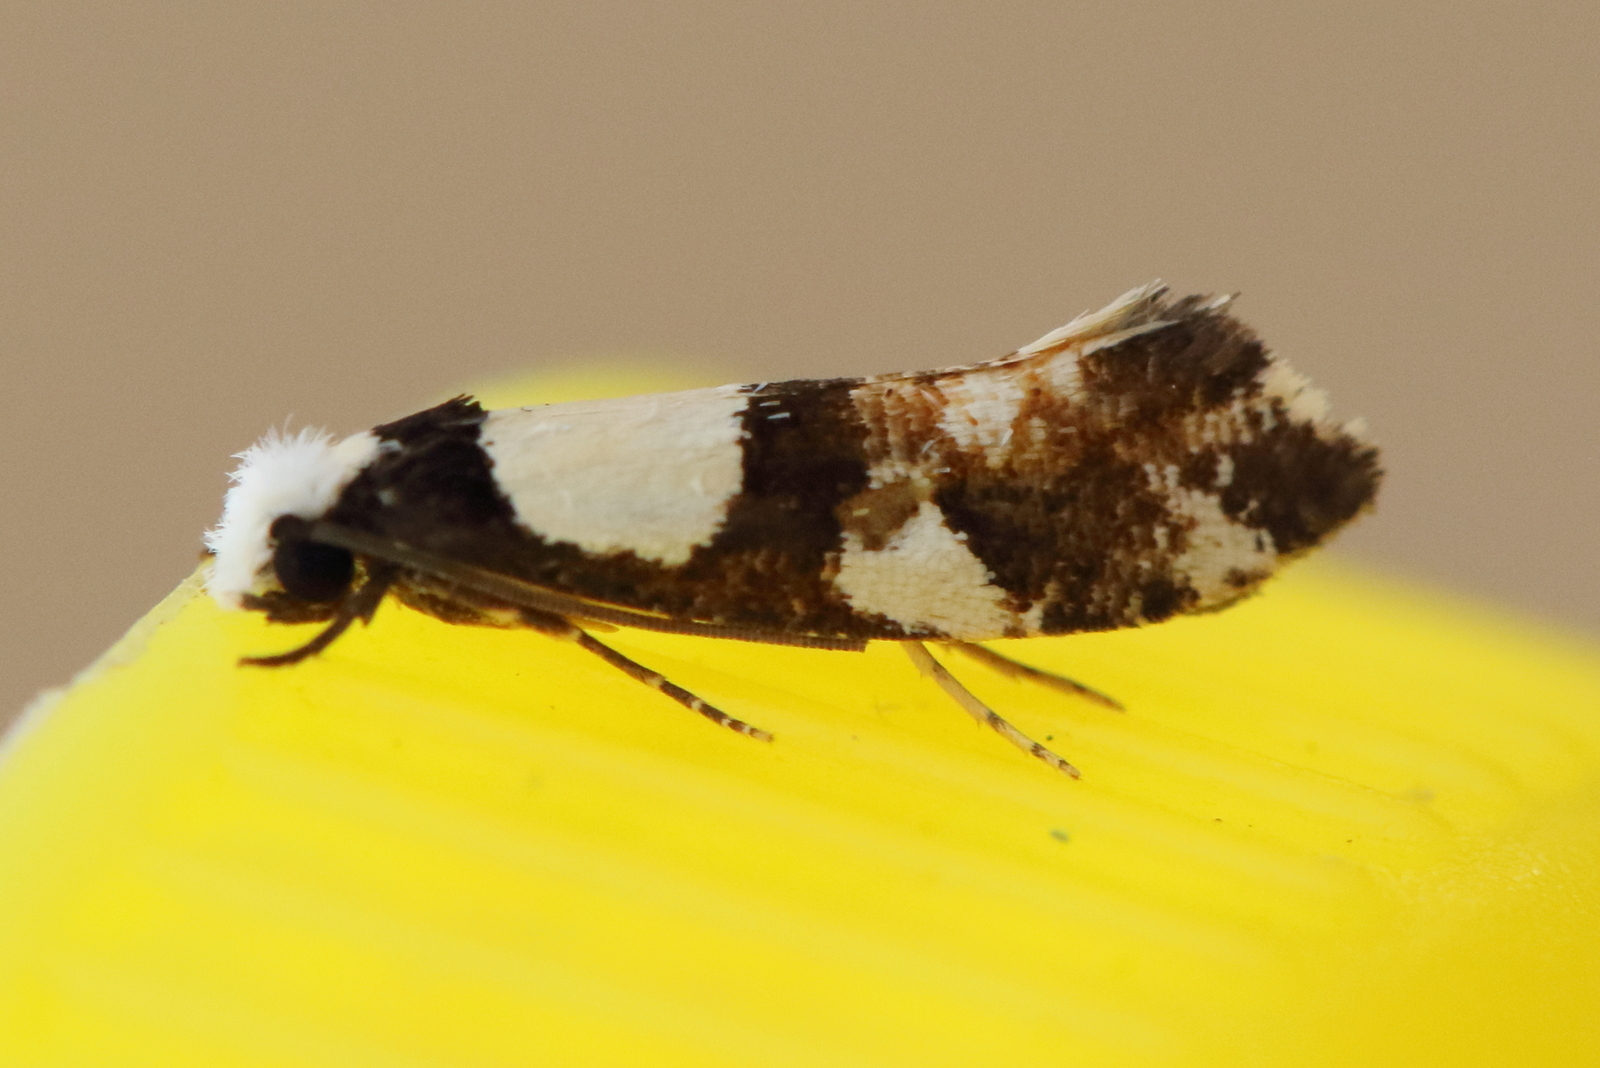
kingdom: Animalia
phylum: Arthropoda
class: Insecta
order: Lepidoptera
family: Tineidae
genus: Monopis
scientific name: Monopis icterogastra
